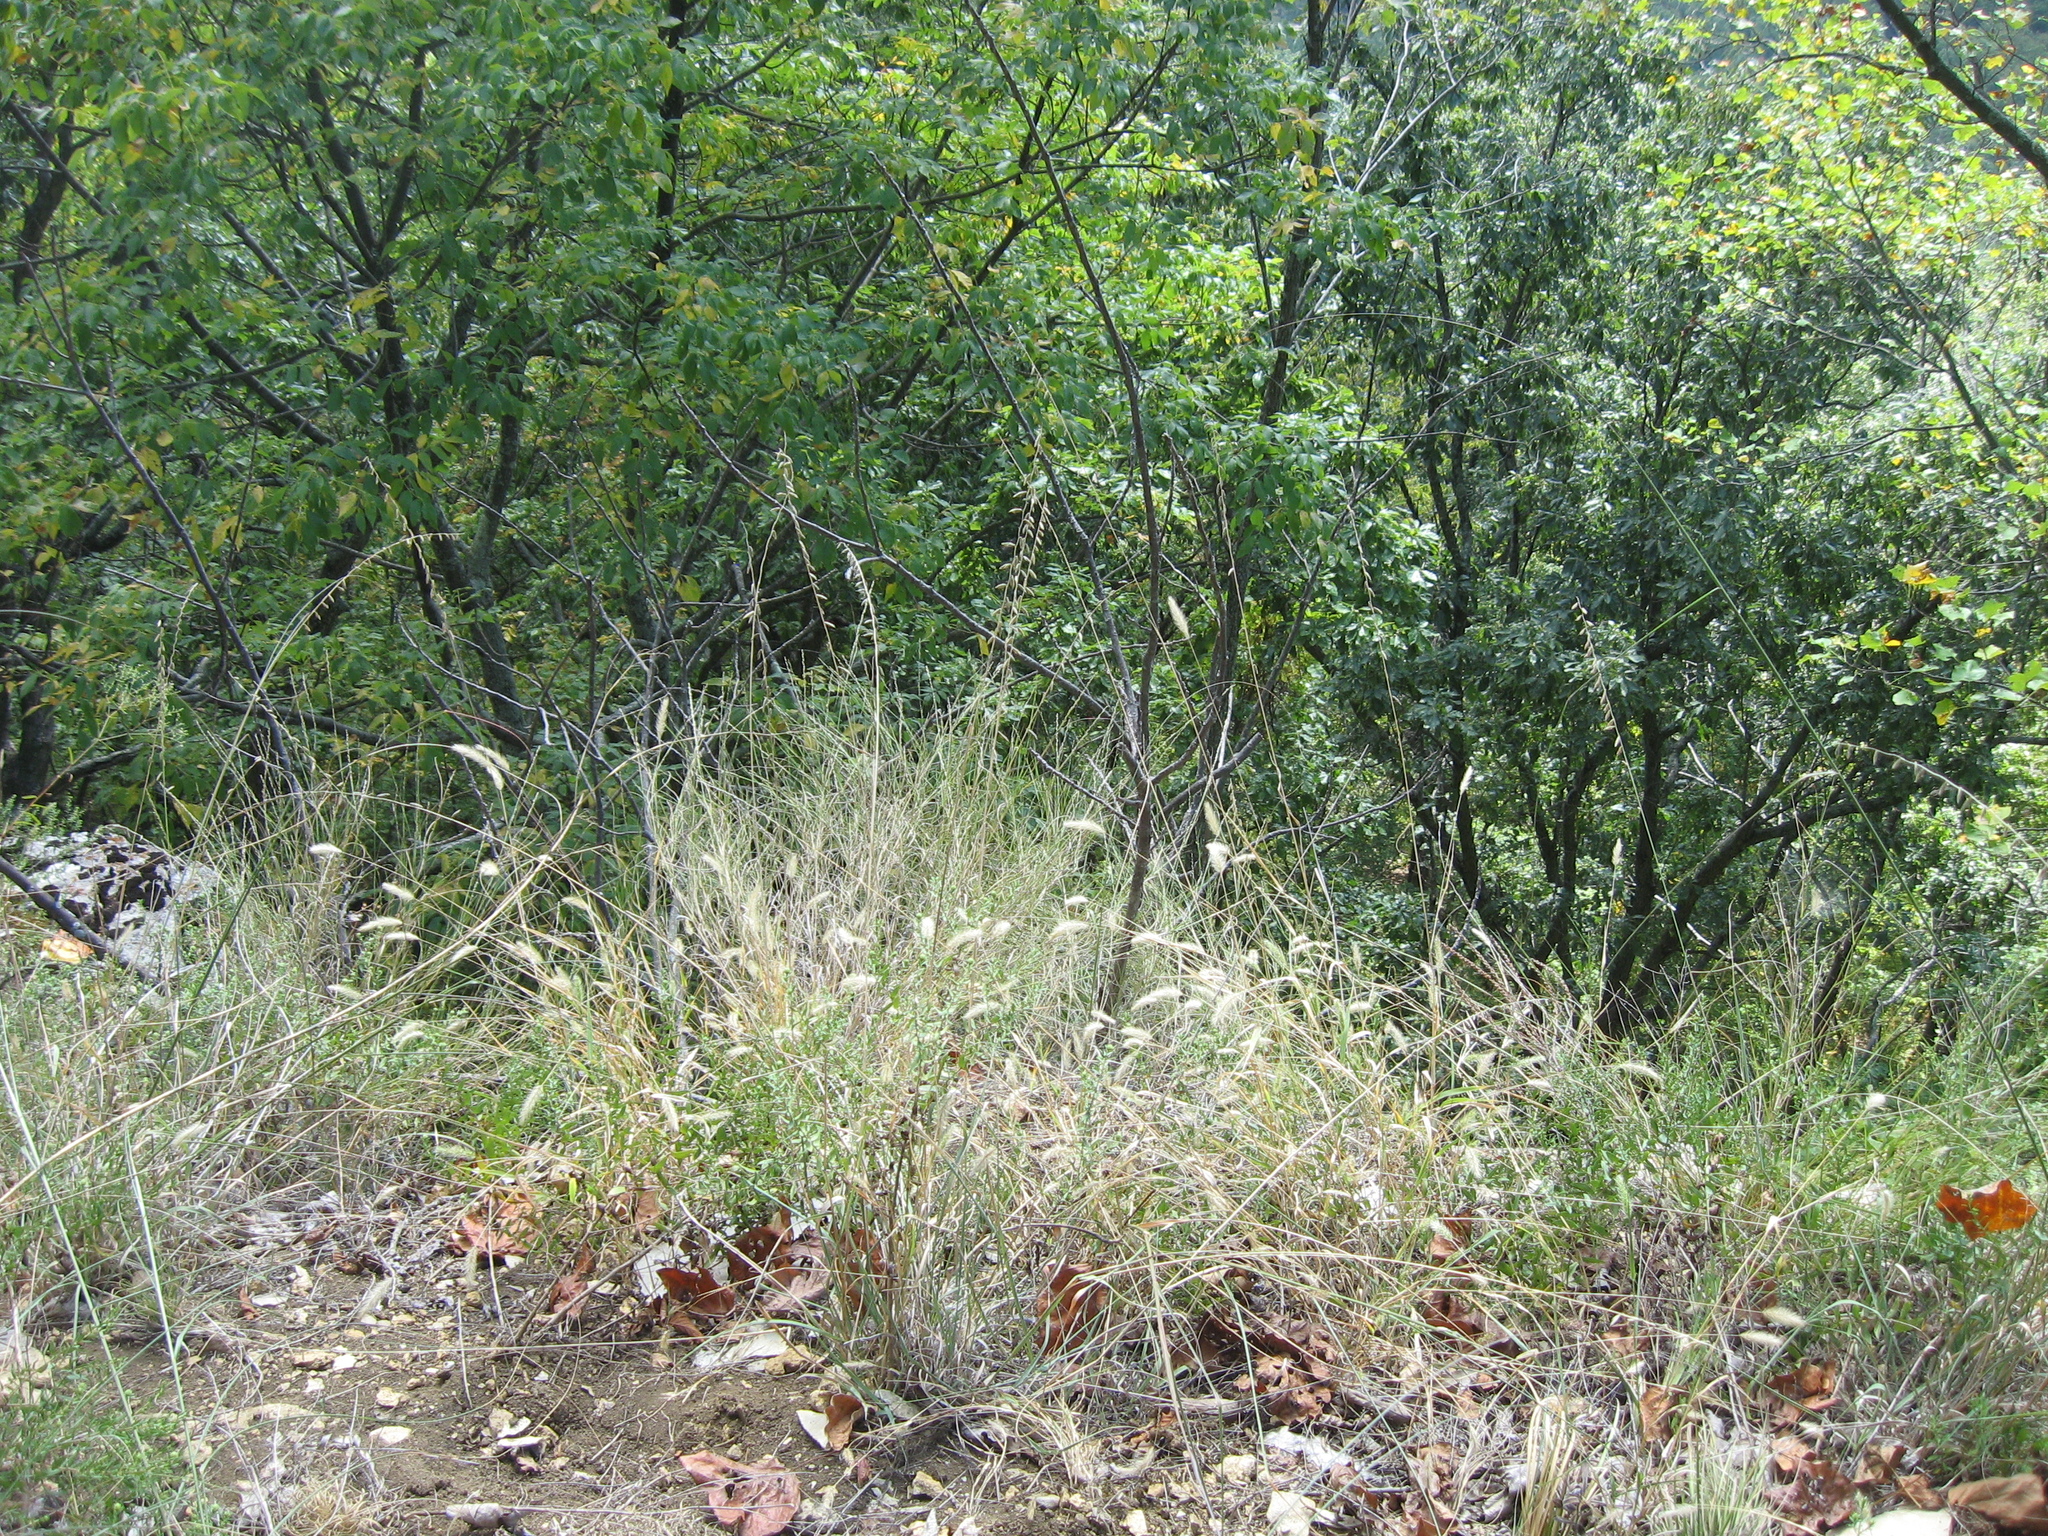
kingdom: Plantae
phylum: Tracheophyta
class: Liliopsida
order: Poales
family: Poaceae
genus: Bouteloua
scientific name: Bouteloua curtipendula
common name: Side-oats grama
